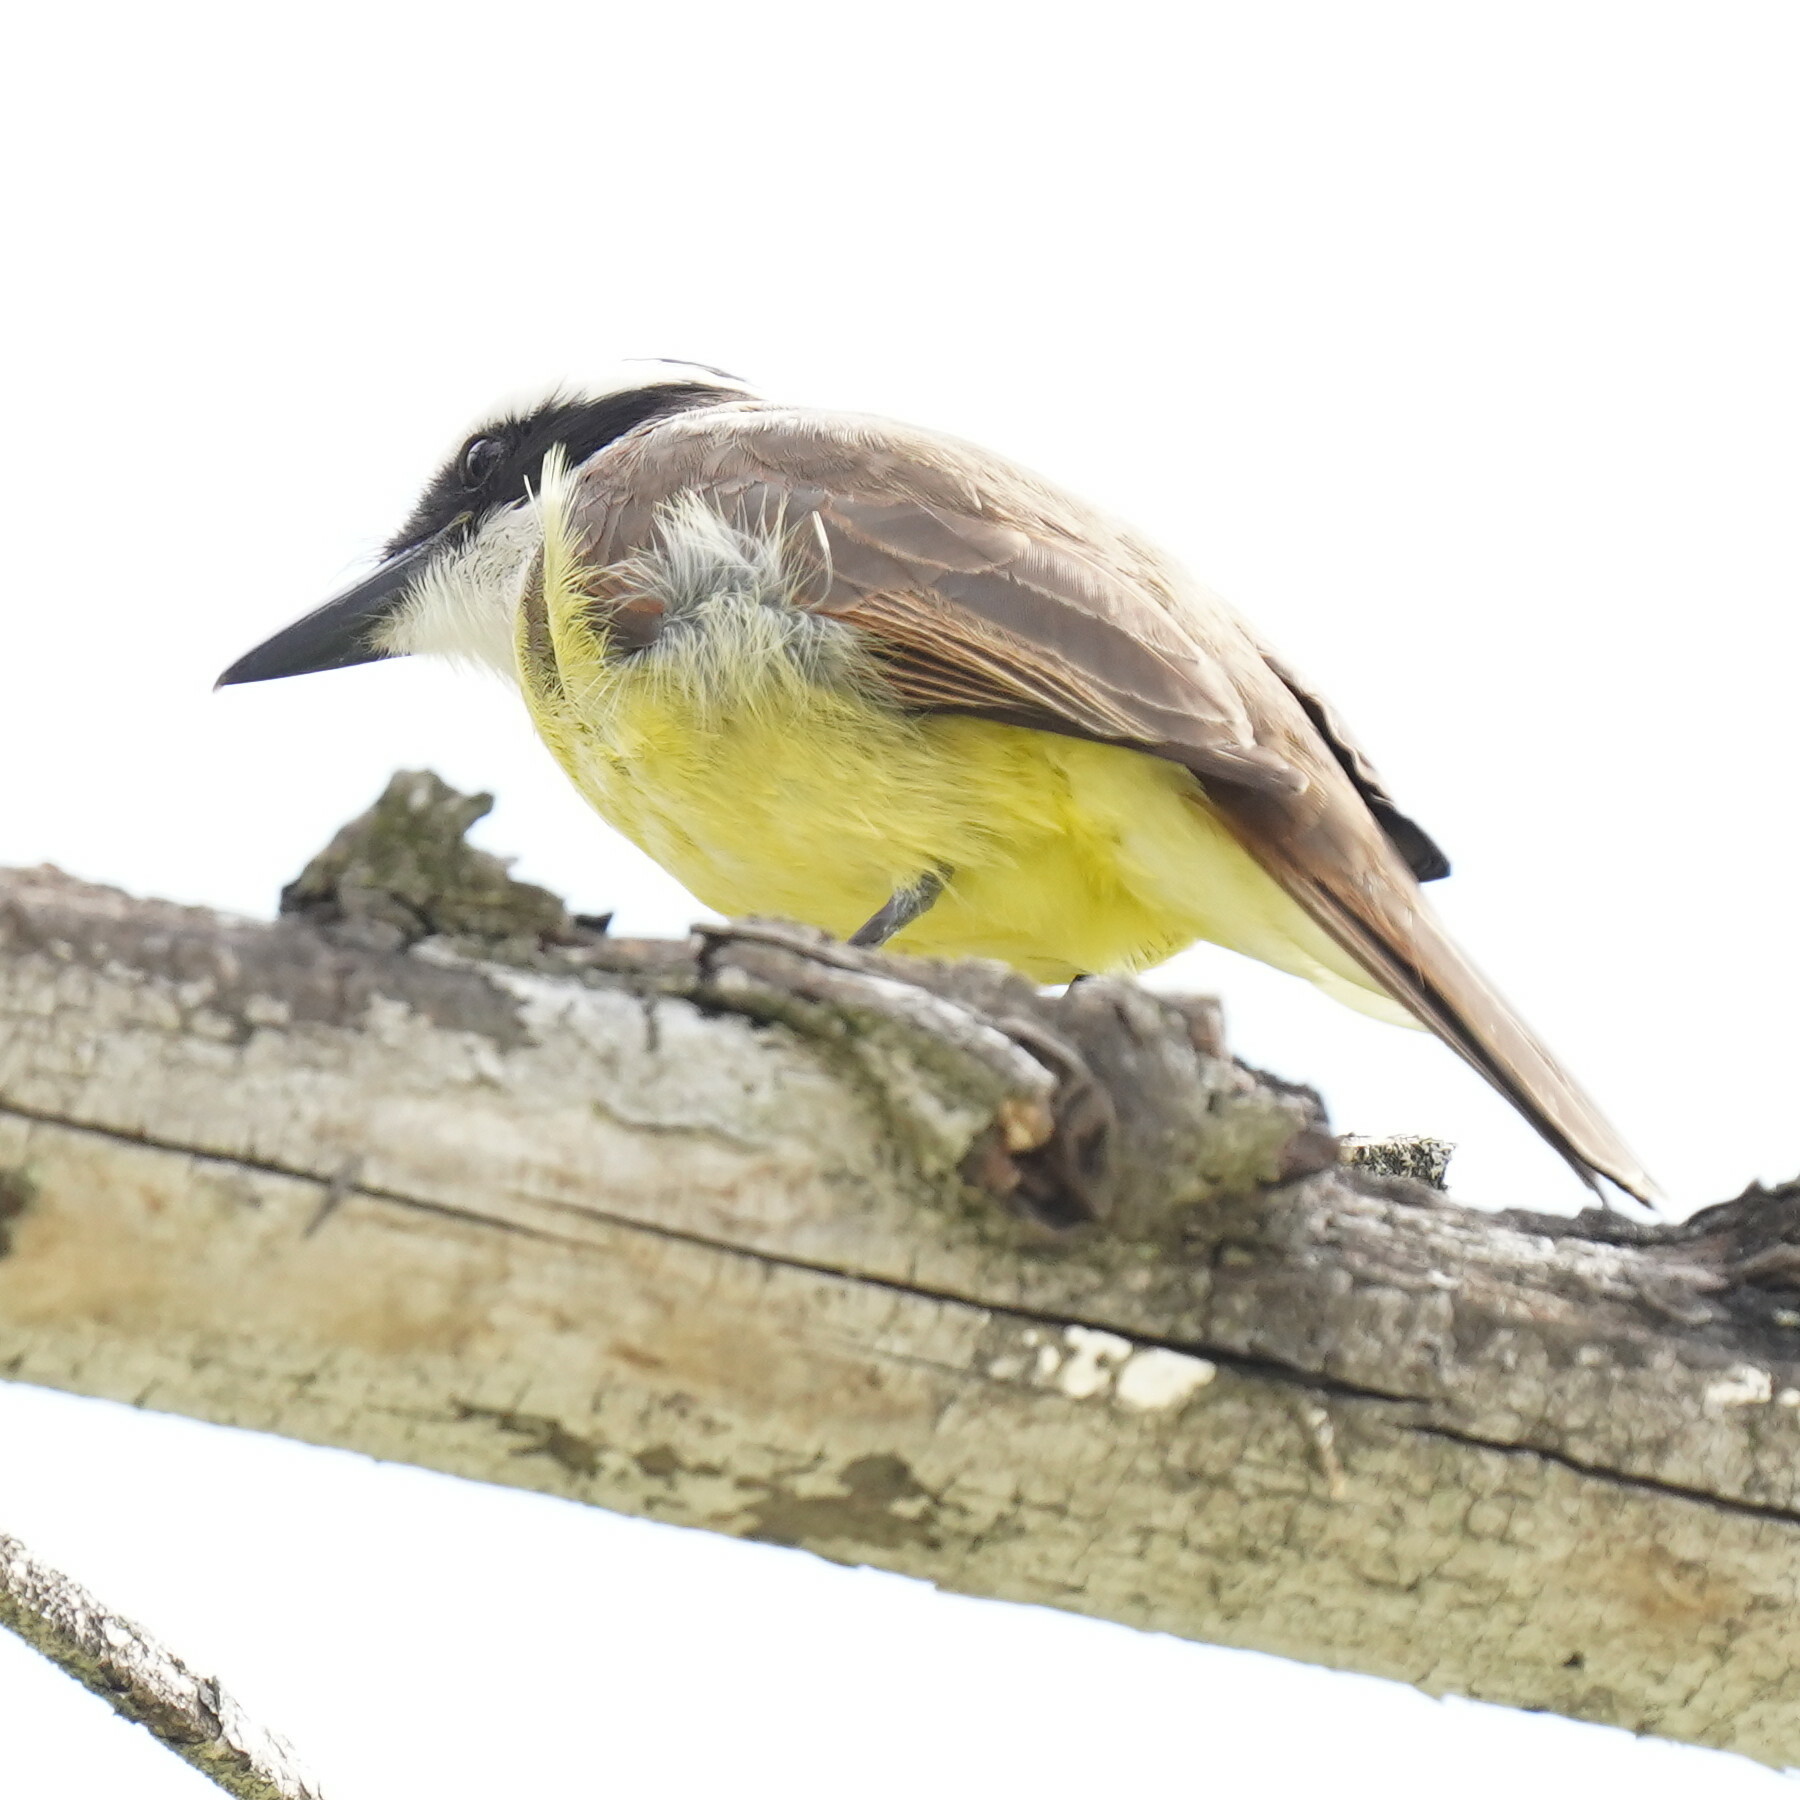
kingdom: Animalia
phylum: Chordata
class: Aves
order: Passeriformes
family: Tyrannidae
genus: Pitangus
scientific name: Pitangus sulphuratus
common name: Great kiskadee
